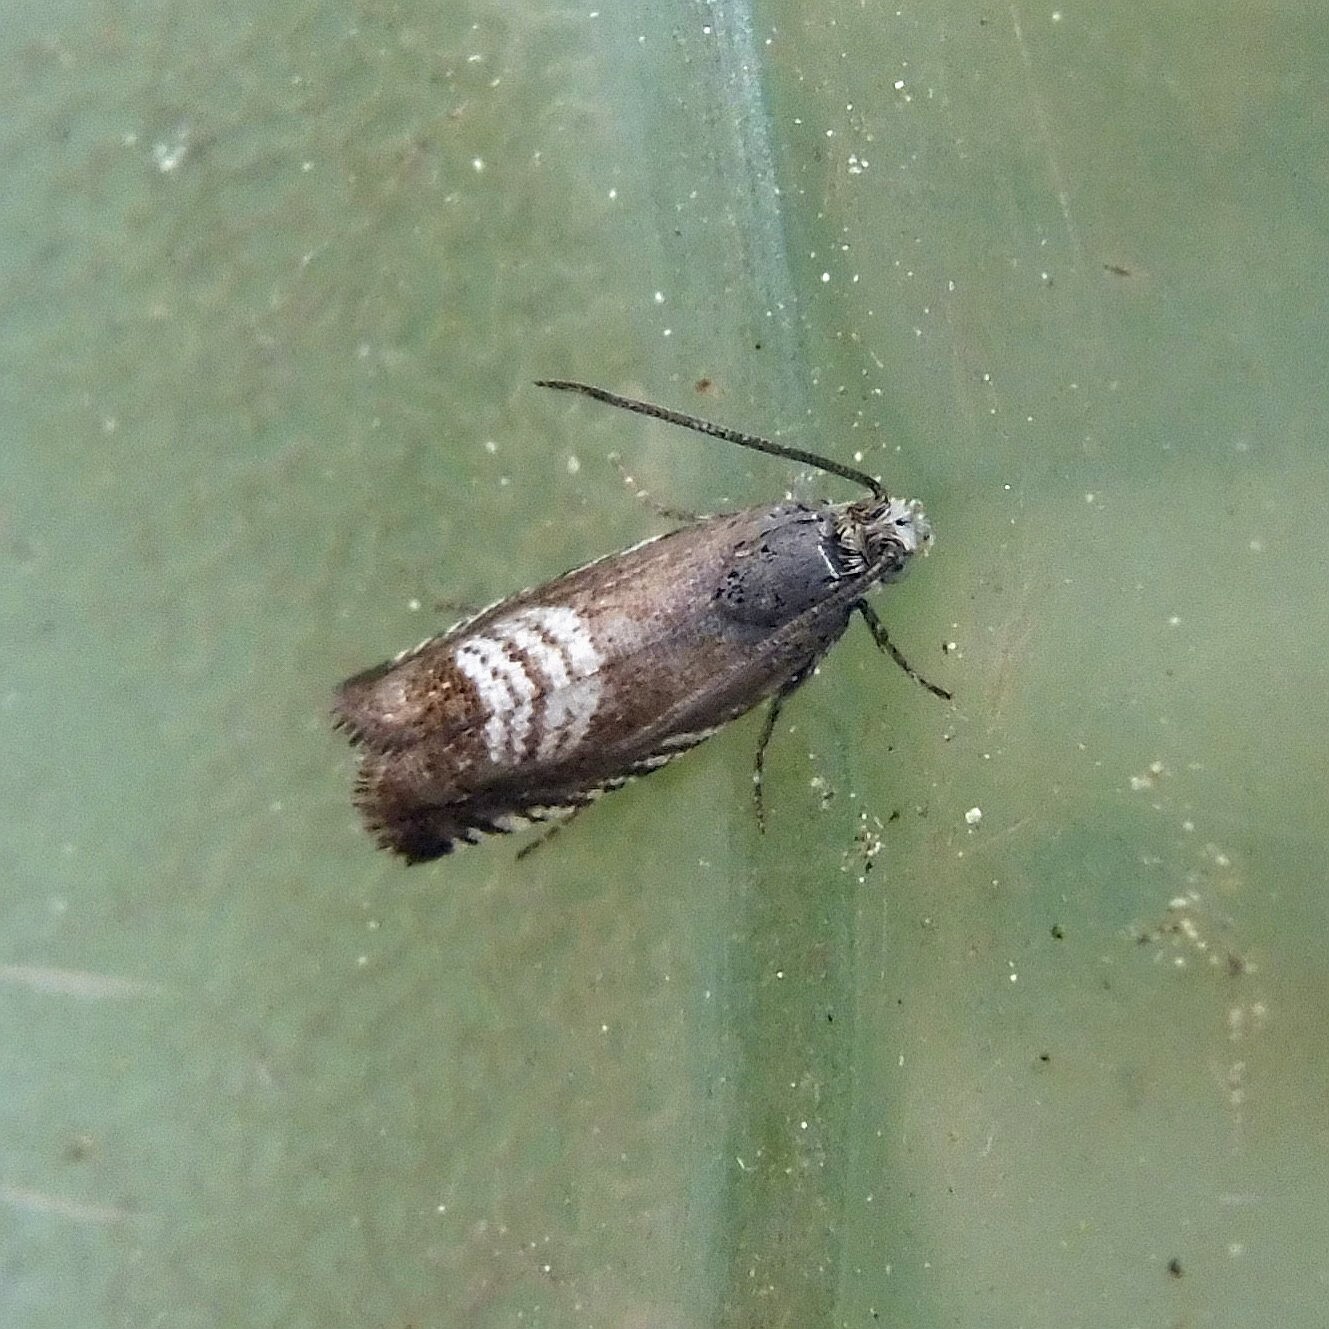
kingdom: Animalia
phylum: Arthropoda
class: Insecta
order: Lepidoptera
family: Tortricidae
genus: Grapholita
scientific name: Grapholita compositella
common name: Triple-stripe piercer
